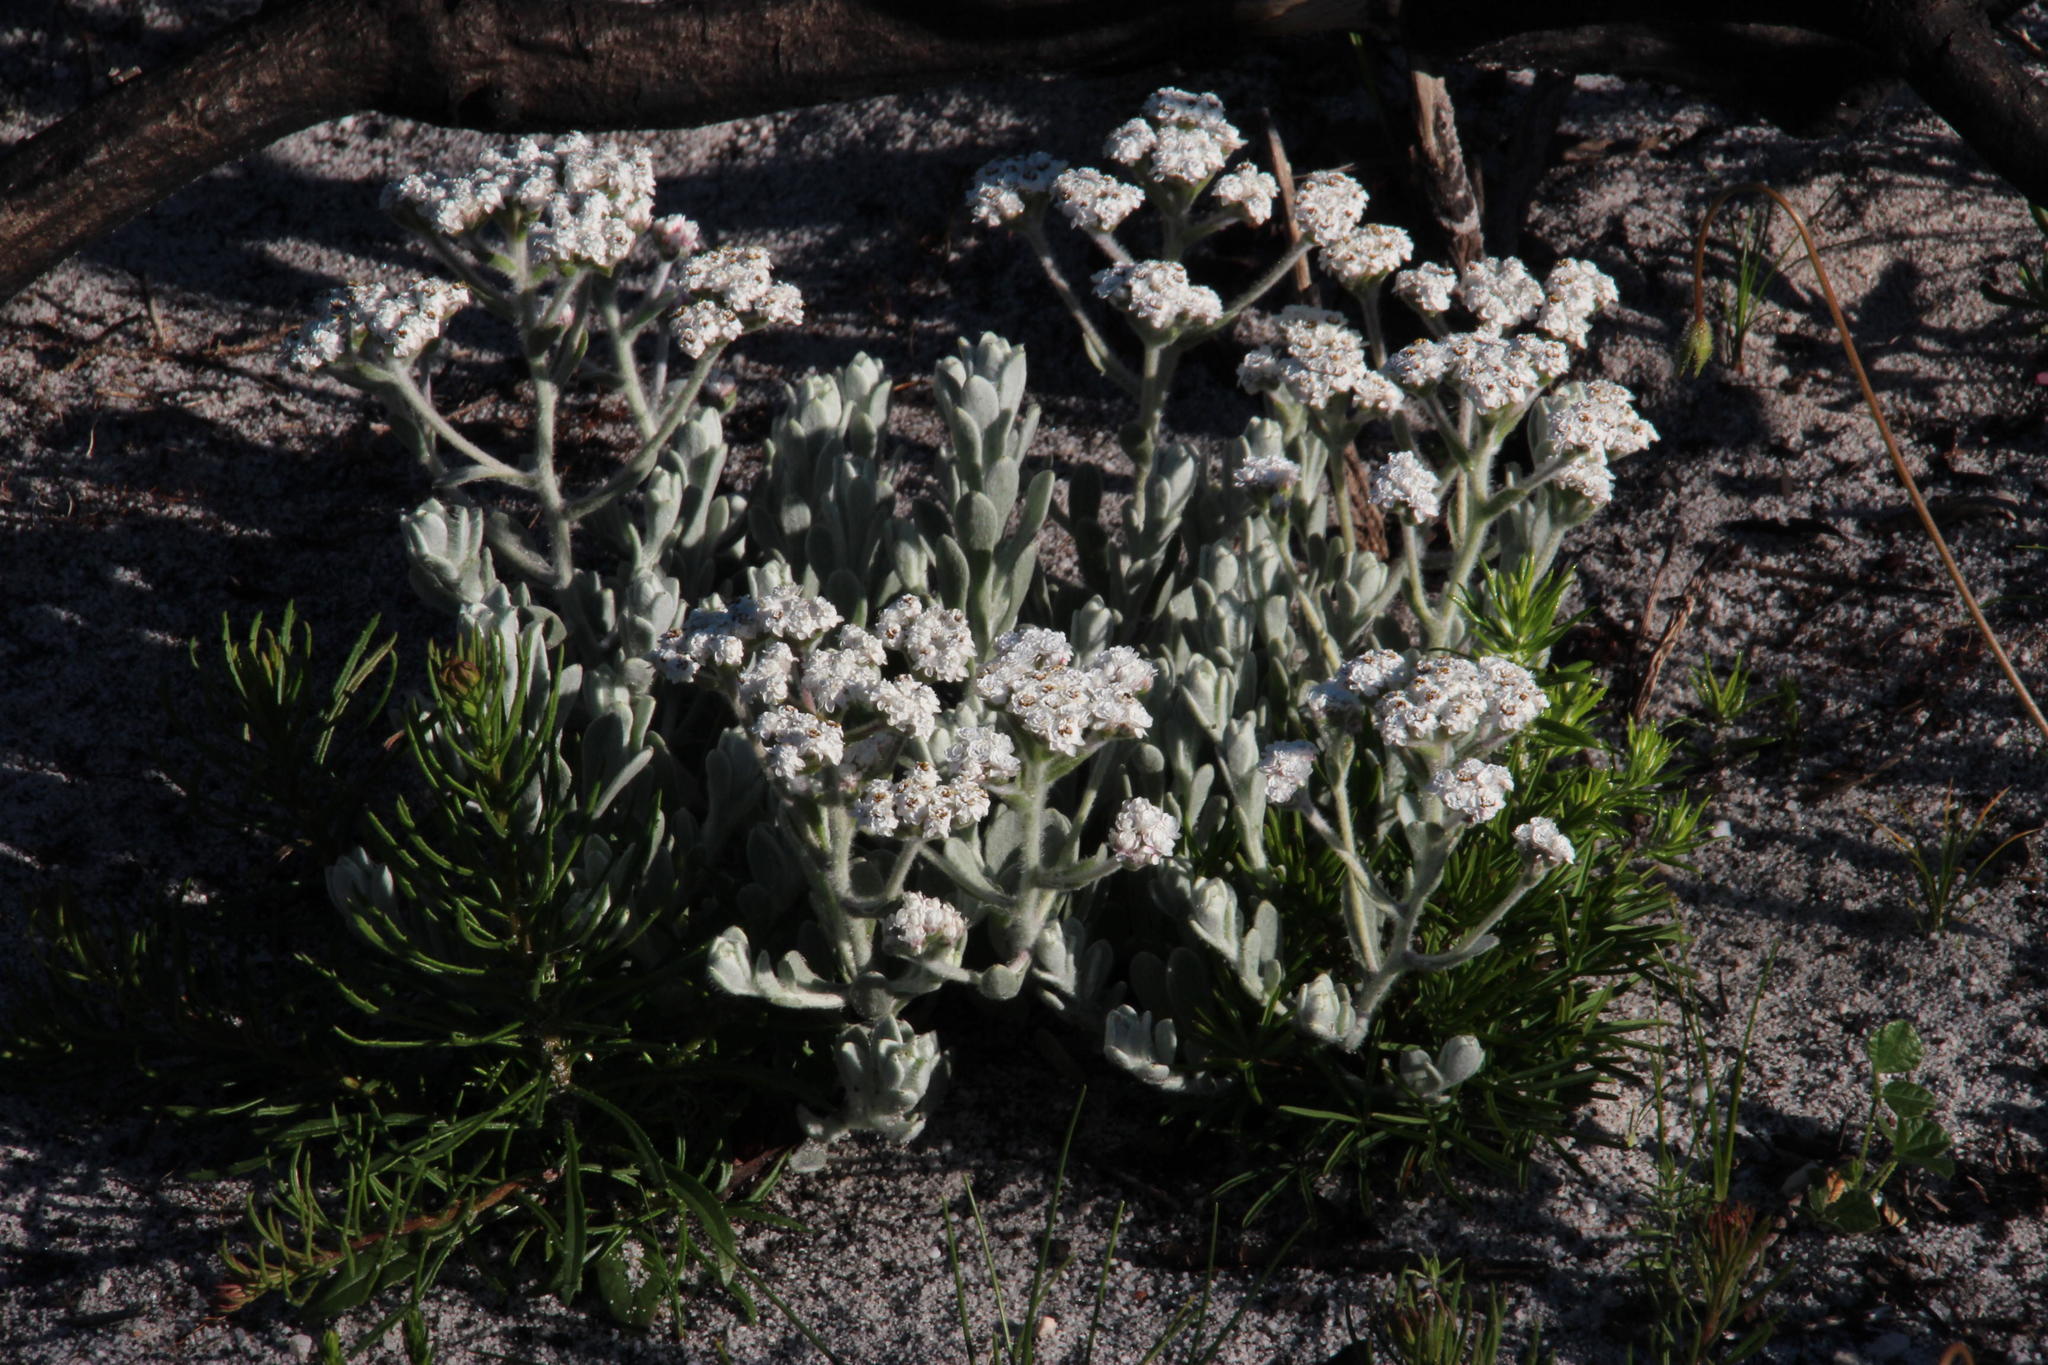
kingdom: Plantae
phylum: Tracheophyta
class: Magnoliopsida
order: Asterales
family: Asteraceae
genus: Petalacte
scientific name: Petalacte coronata
